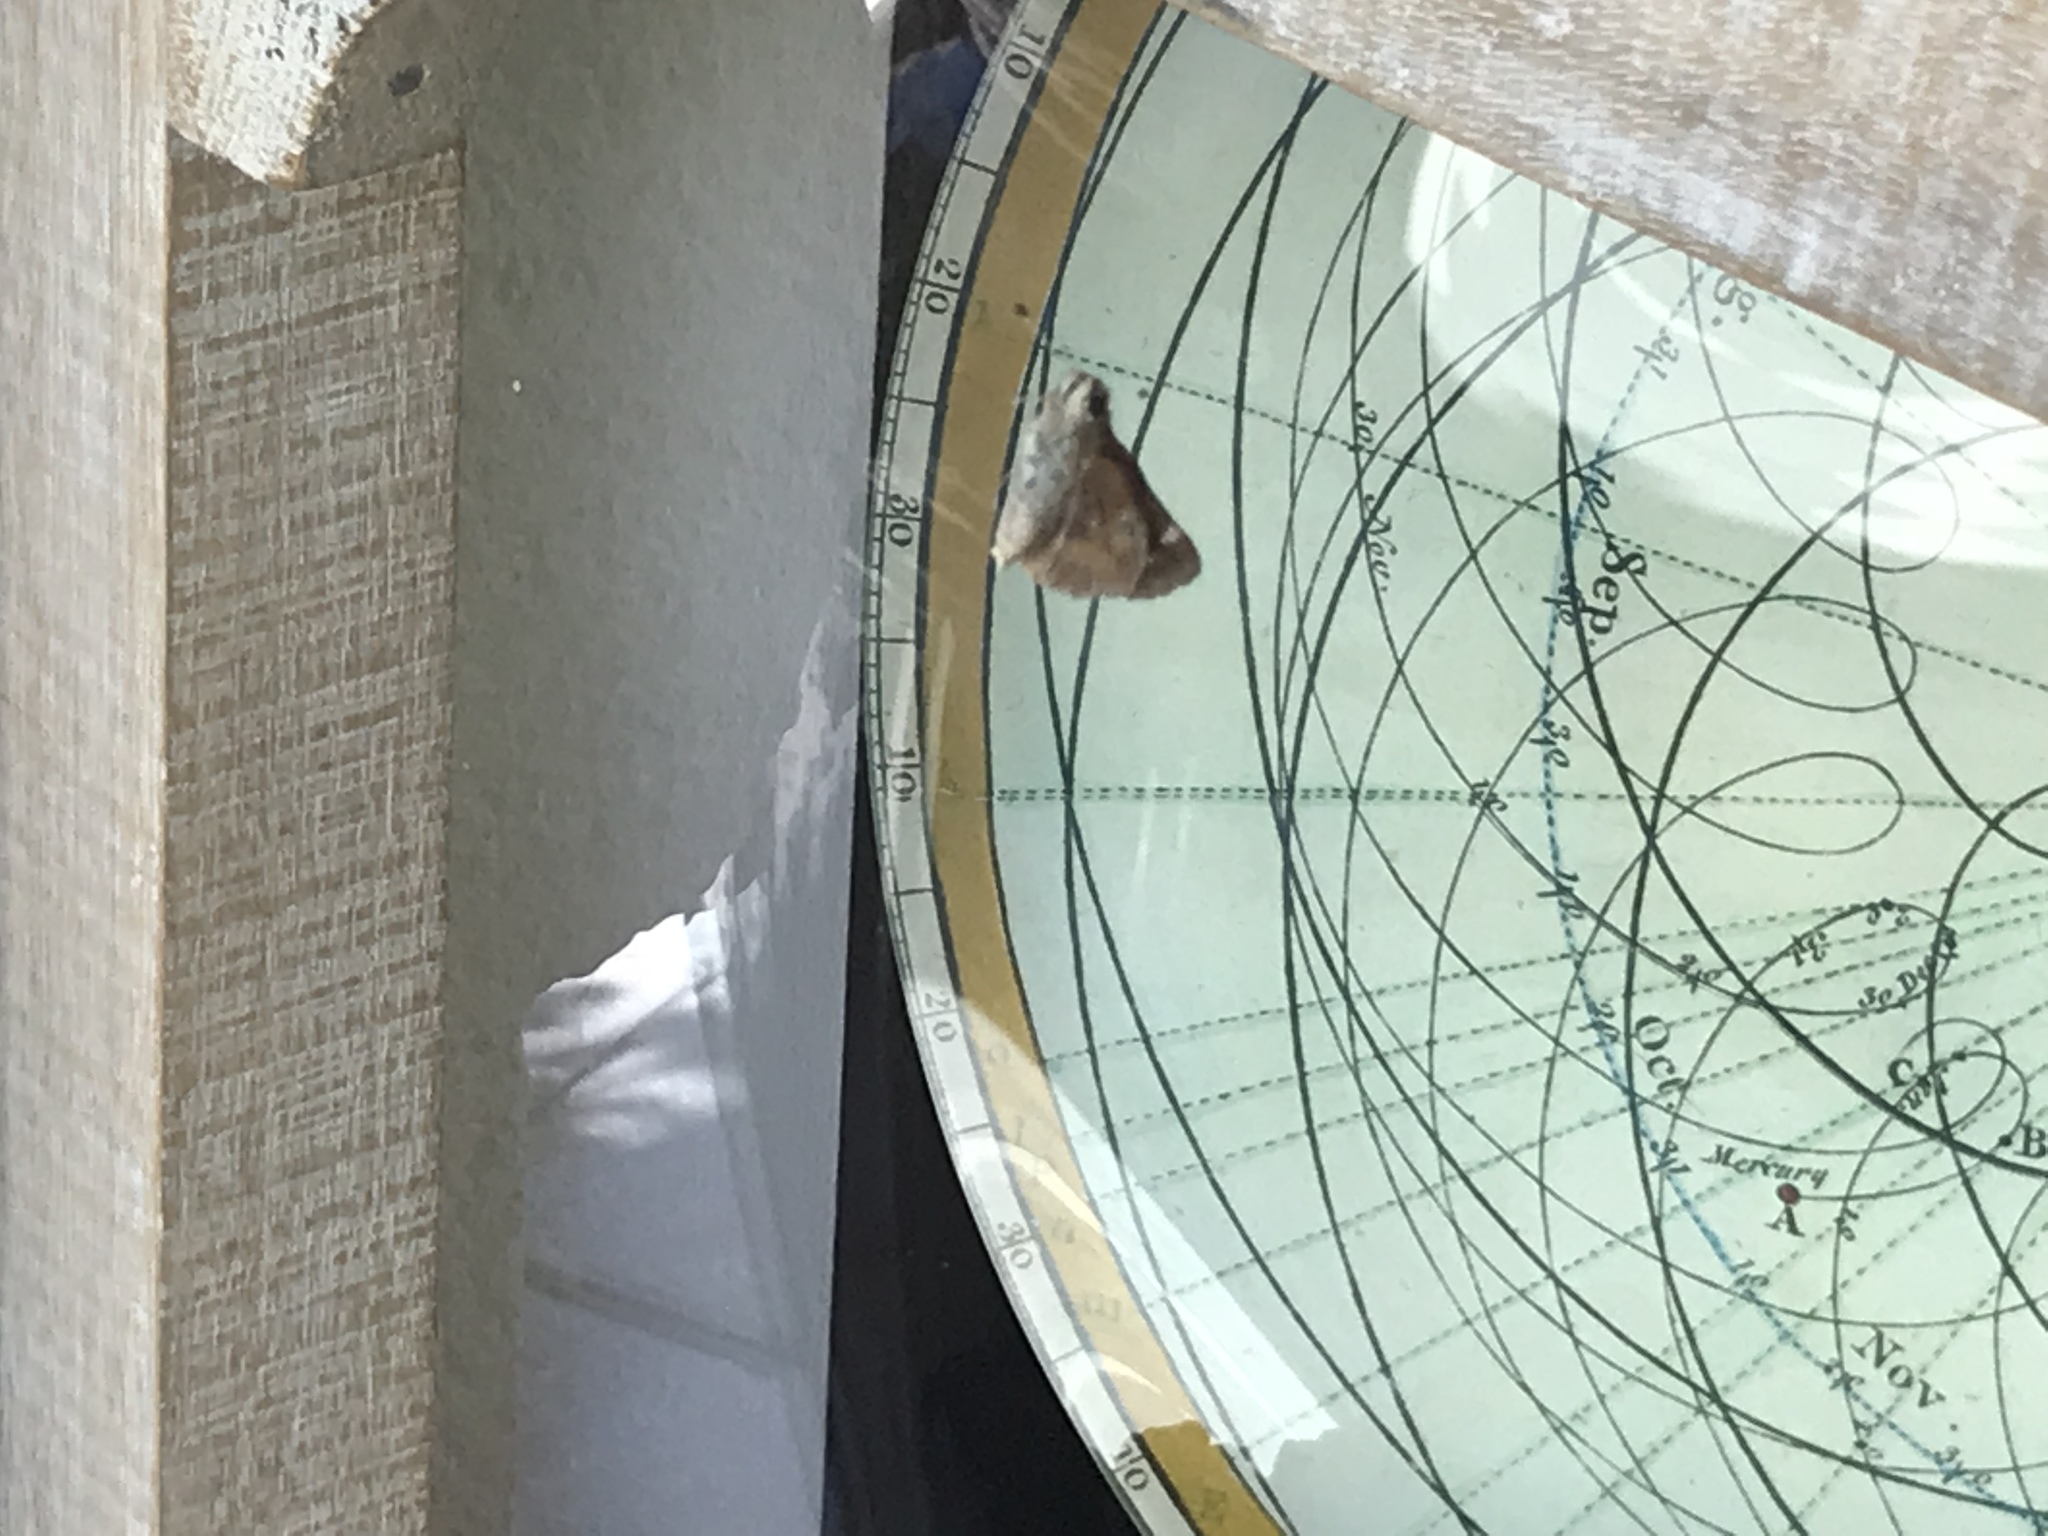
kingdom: Animalia
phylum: Arthropoda
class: Insecta
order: Lepidoptera
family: Hesperiidae
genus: Lon
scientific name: Lon melane
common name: Umber skipper
